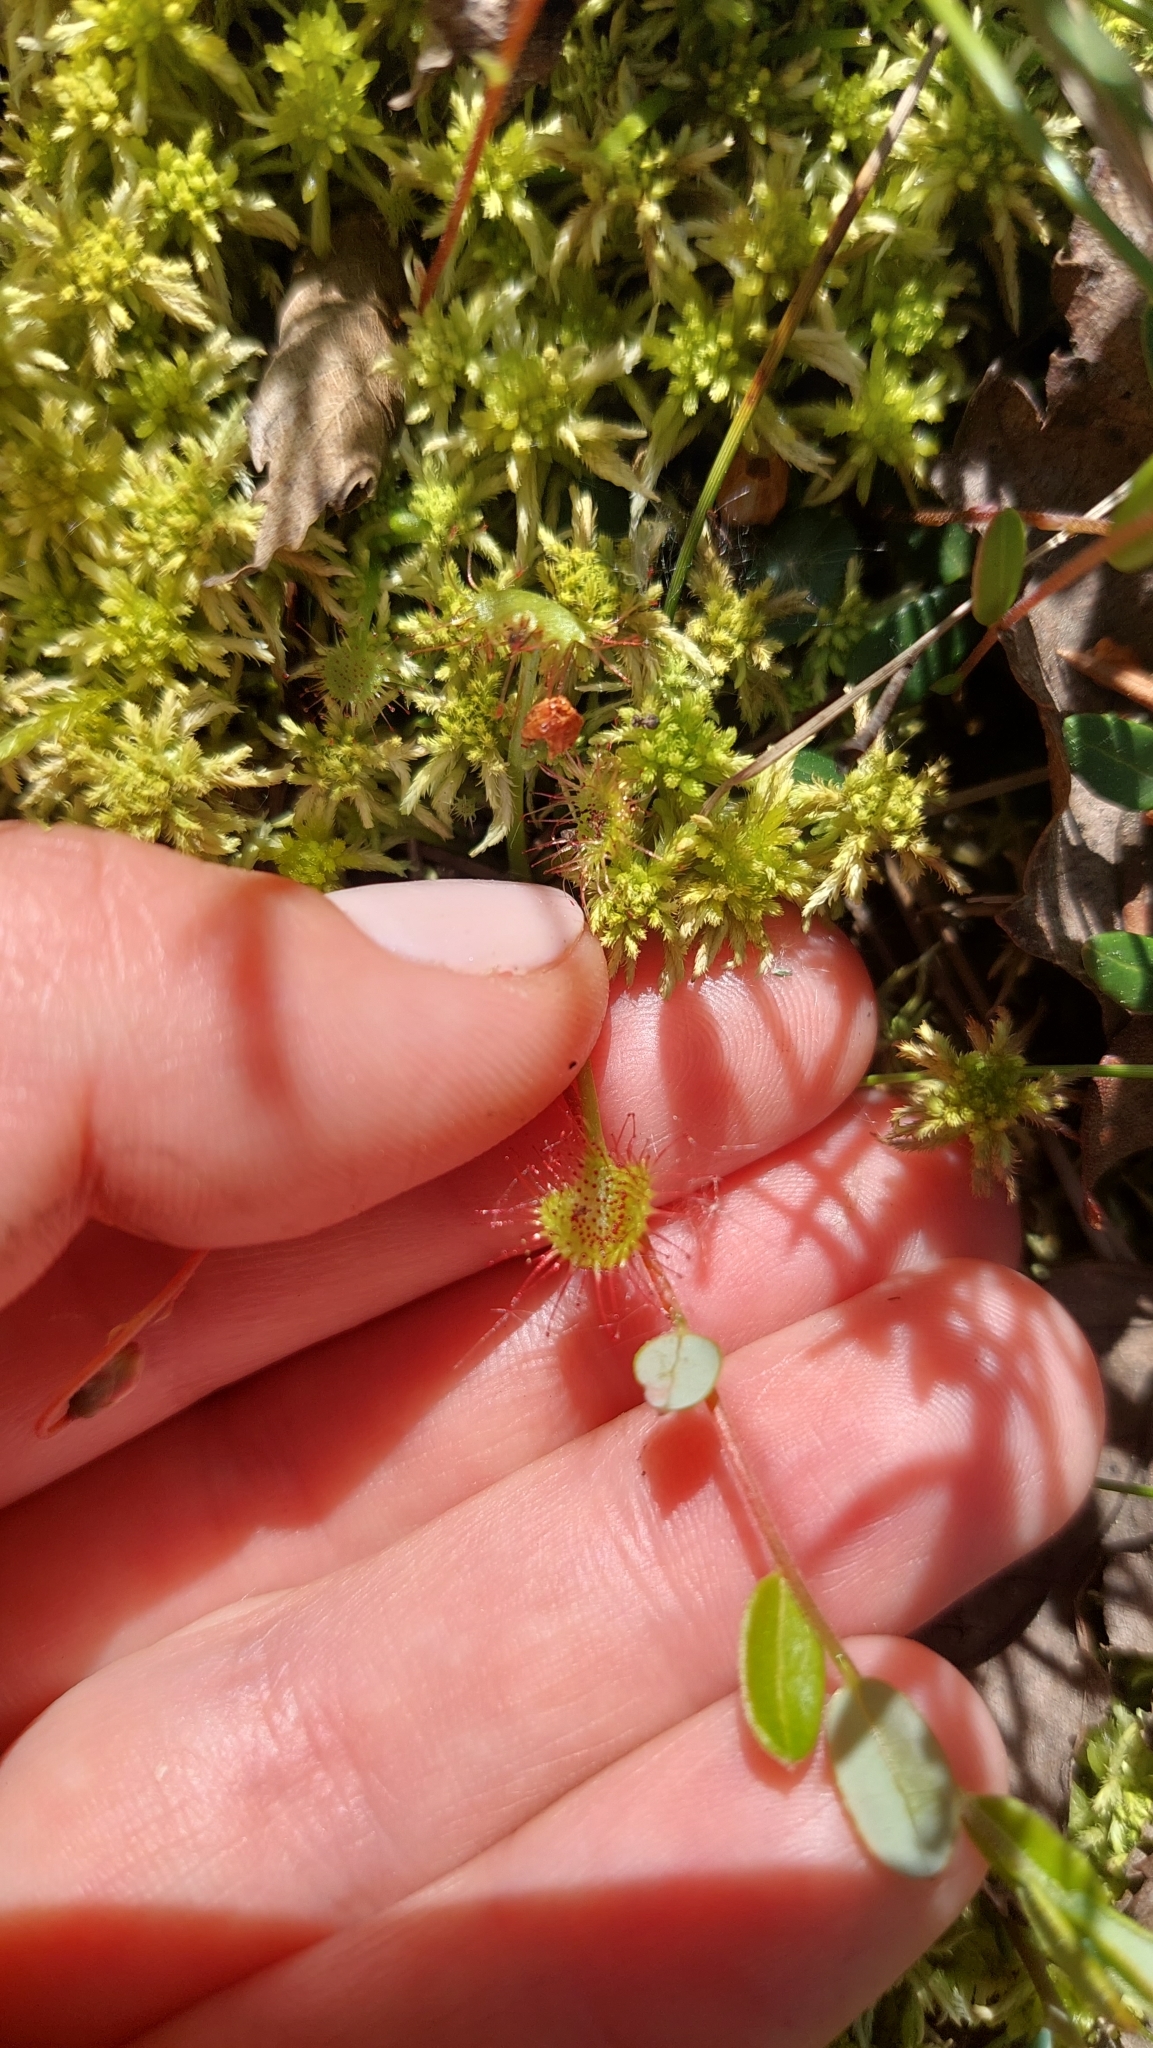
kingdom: Plantae
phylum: Tracheophyta
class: Magnoliopsida
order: Caryophyllales
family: Droseraceae
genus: Drosera
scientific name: Drosera rotundifolia
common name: Round-leaved sundew
